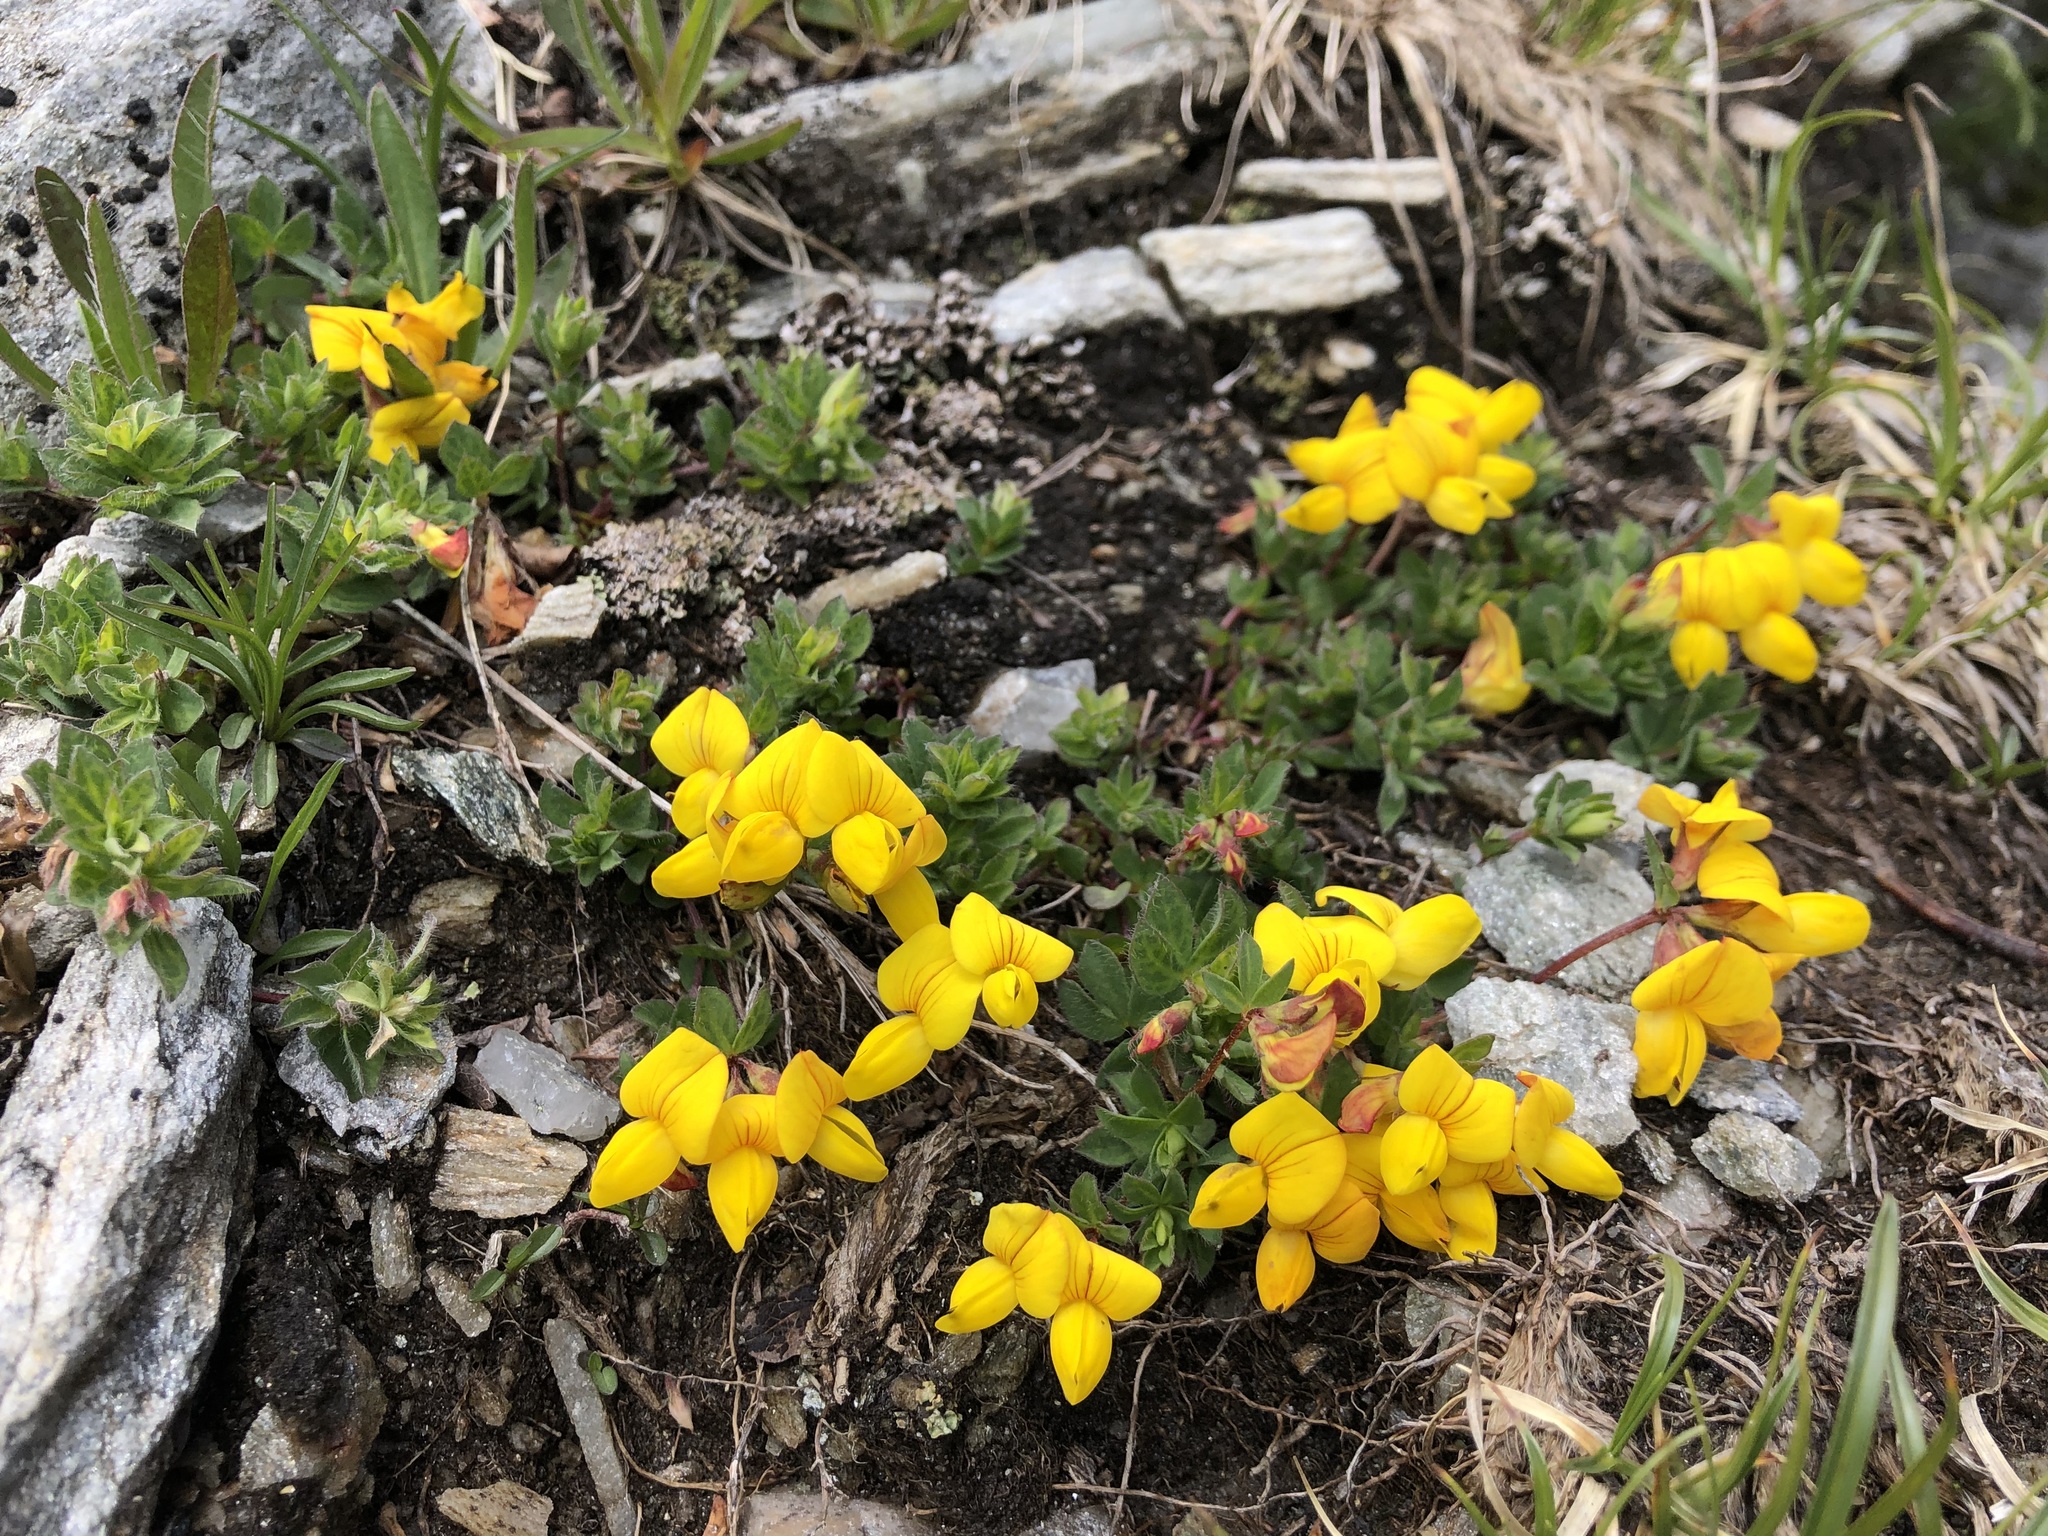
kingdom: Plantae
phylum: Tracheophyta
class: Magnoliopsida
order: Fabales
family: Fabaceae
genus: Lotus
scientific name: Lotus corniculatus
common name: Common bird's-foot-trefoil
